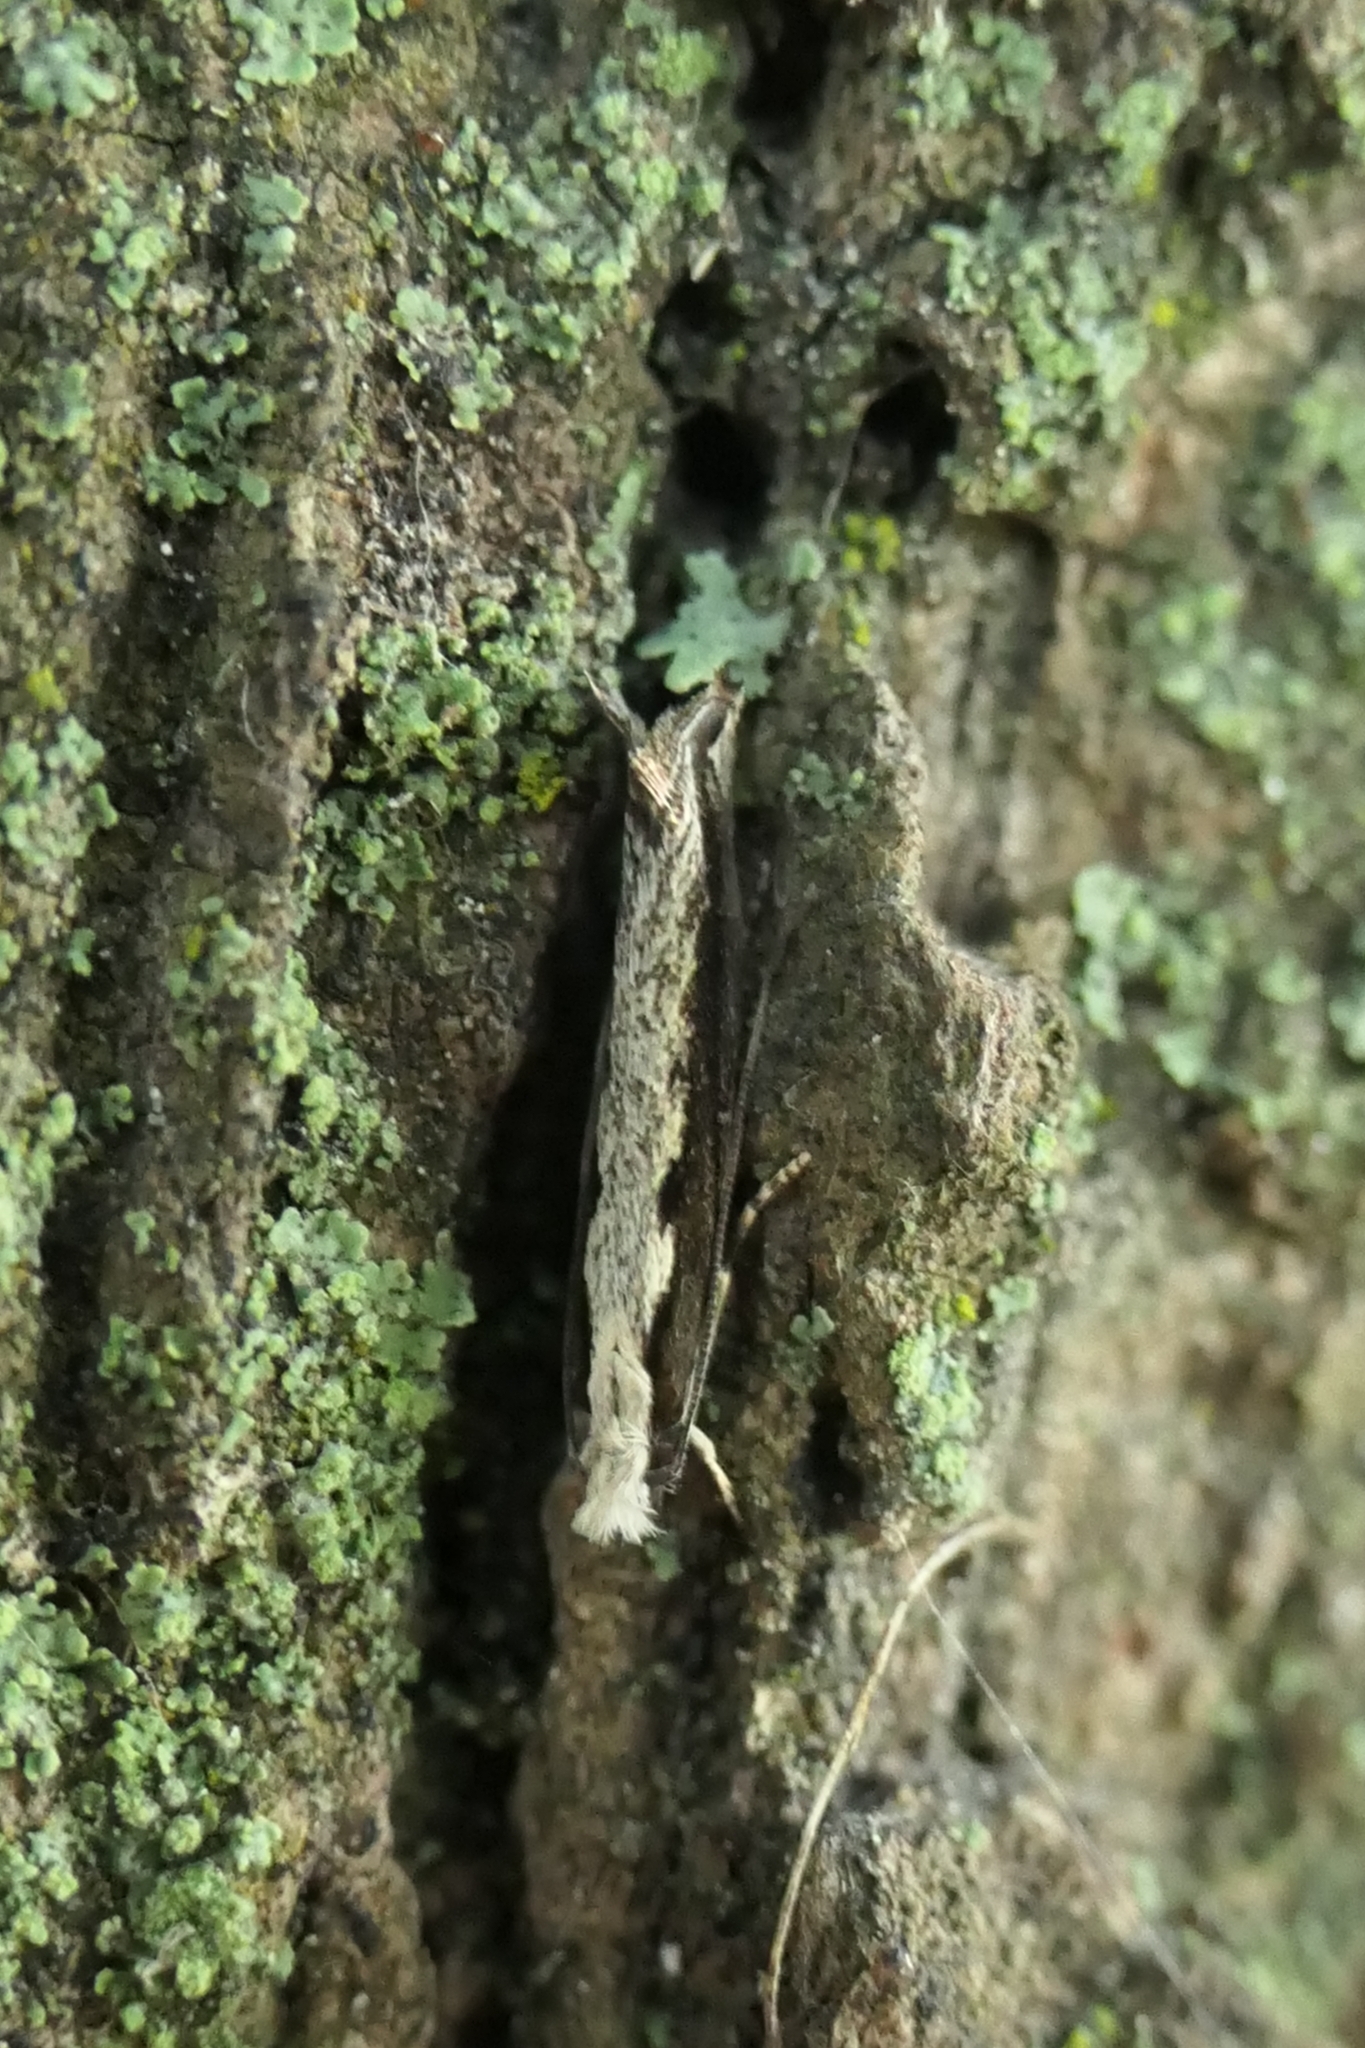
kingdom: Animalia
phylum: Arthropoda
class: Insecta
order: Lepidoptera
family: Tineidae
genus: Erechthias
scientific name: Erechthias fulguritella
